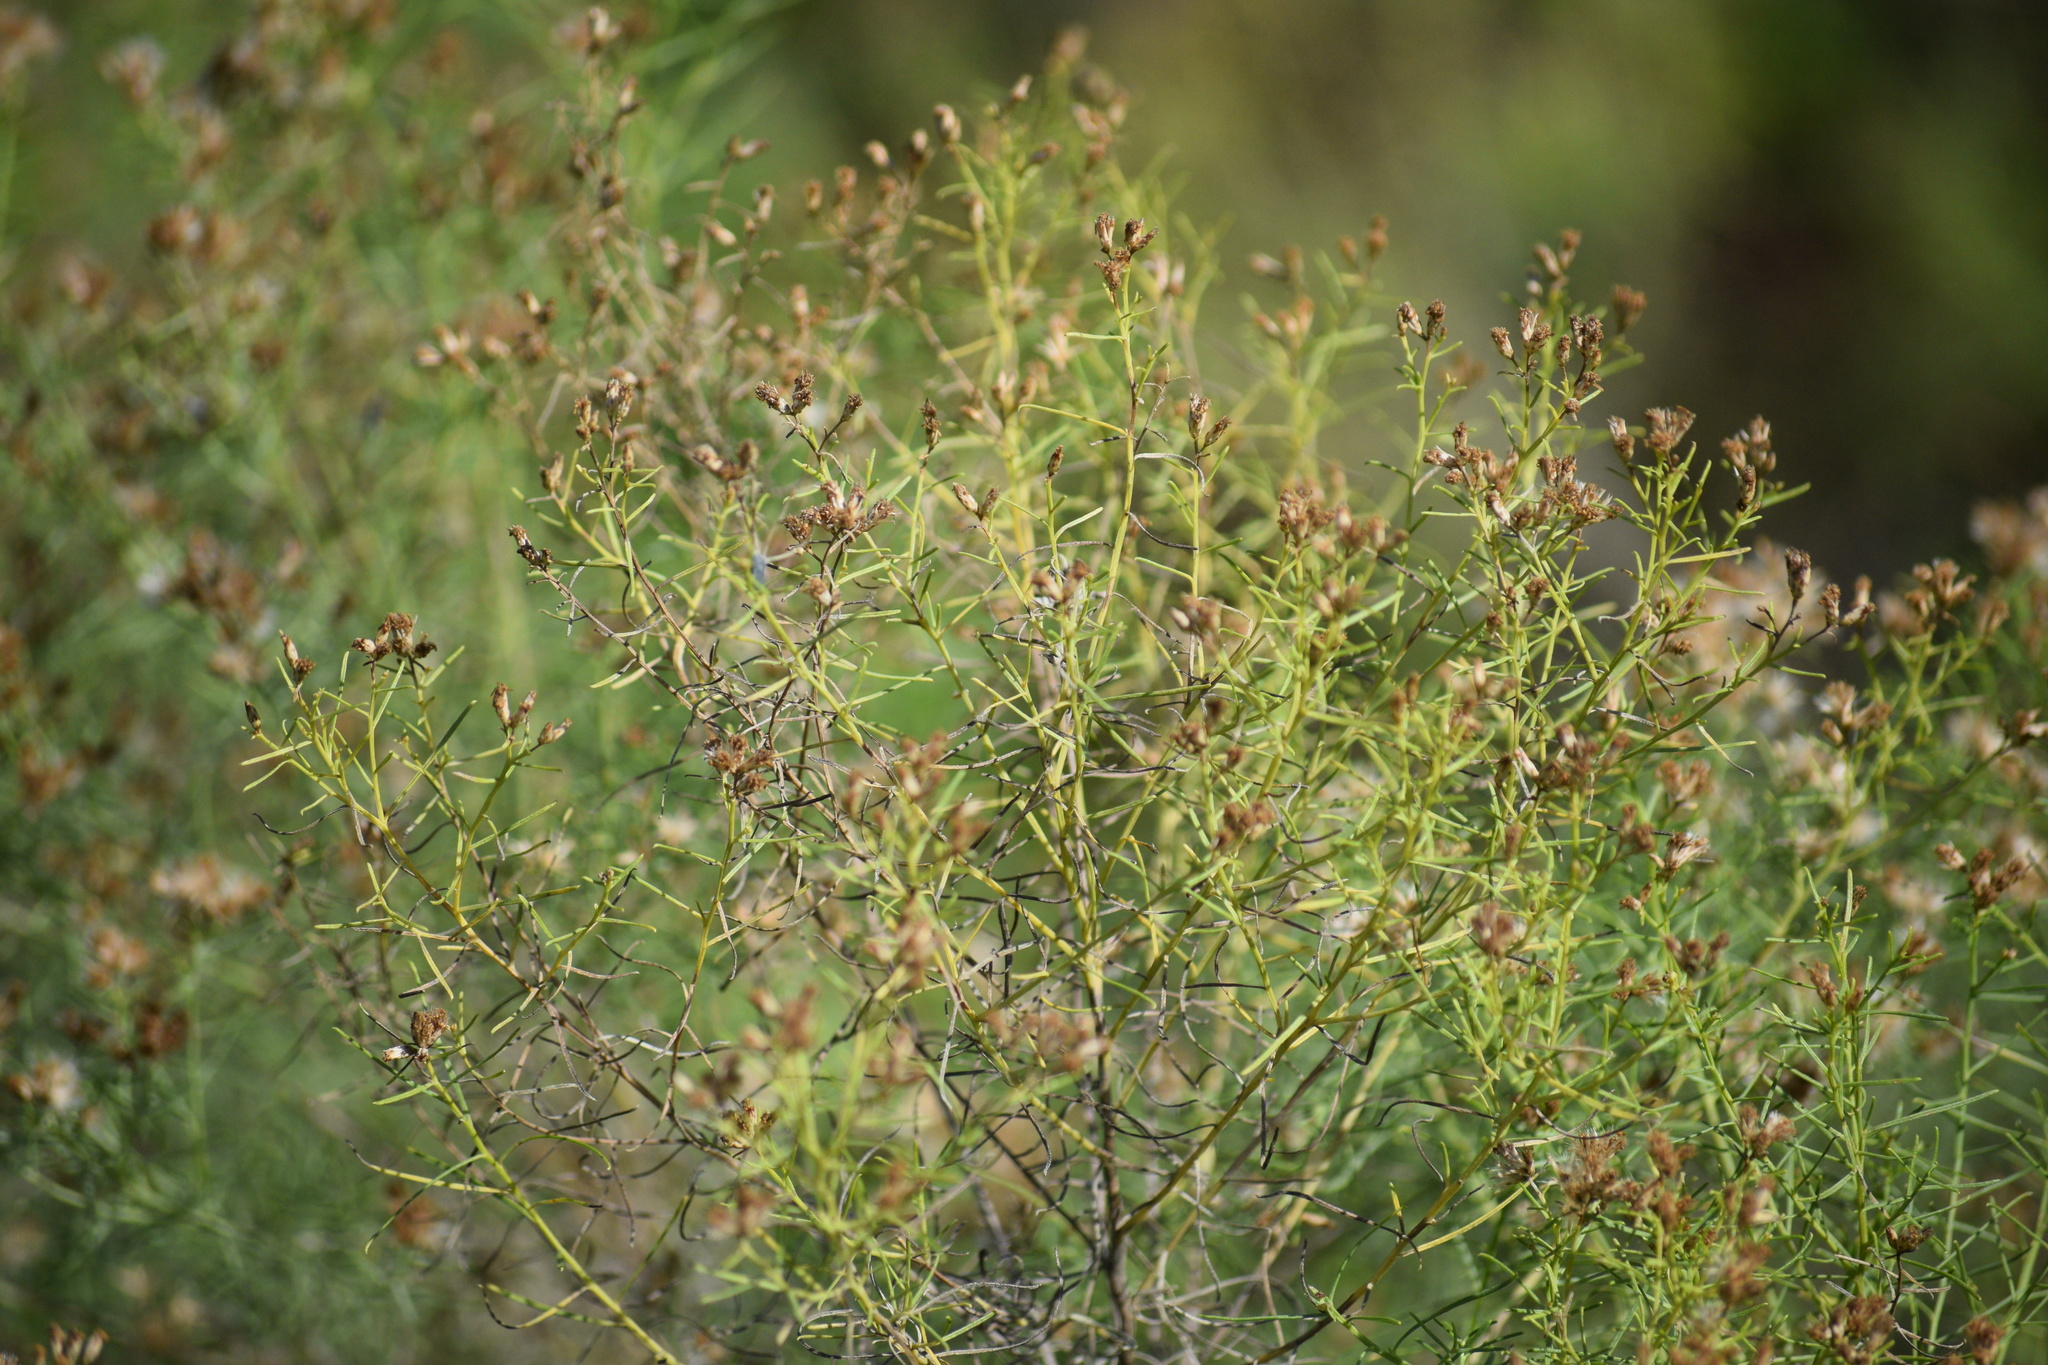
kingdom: Plantae
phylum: Tracheophyta
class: Magnoliopsida
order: Asterales
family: Asteraceae
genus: Euthamia
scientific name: Euthamia caroliniana
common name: Coastal plain goldentop
